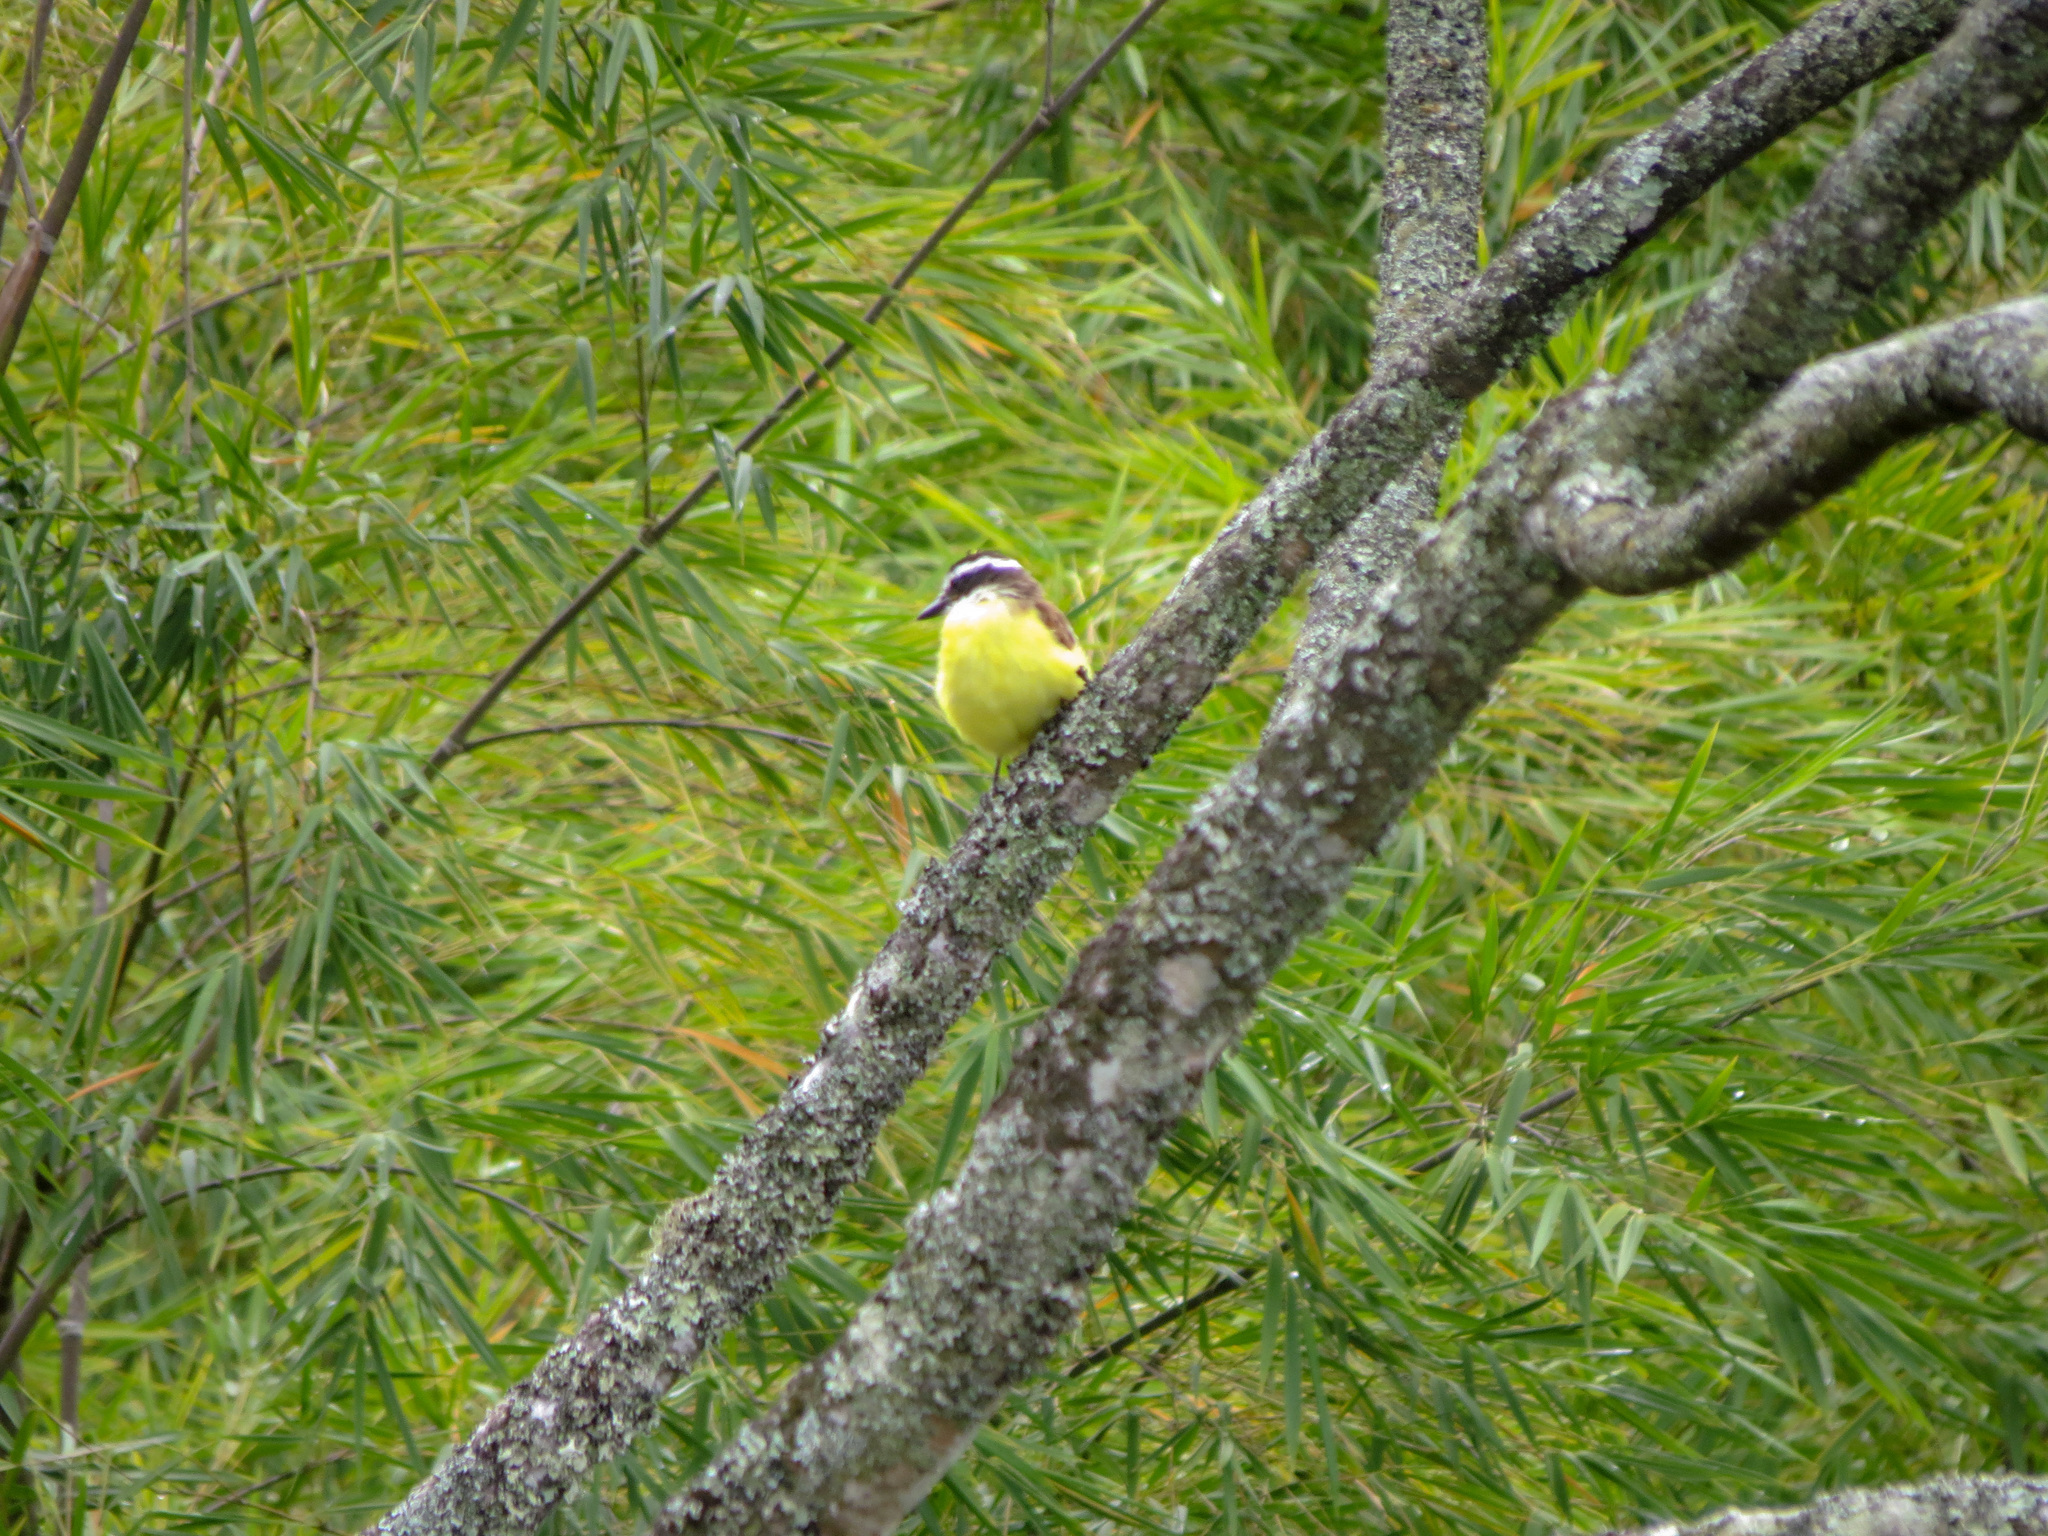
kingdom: Animalia
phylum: Chordata
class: Aves
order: Passeriformes
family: Tyrannidae
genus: Pitangus
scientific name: Pitangus sulphuratus
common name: Great kiskadee
